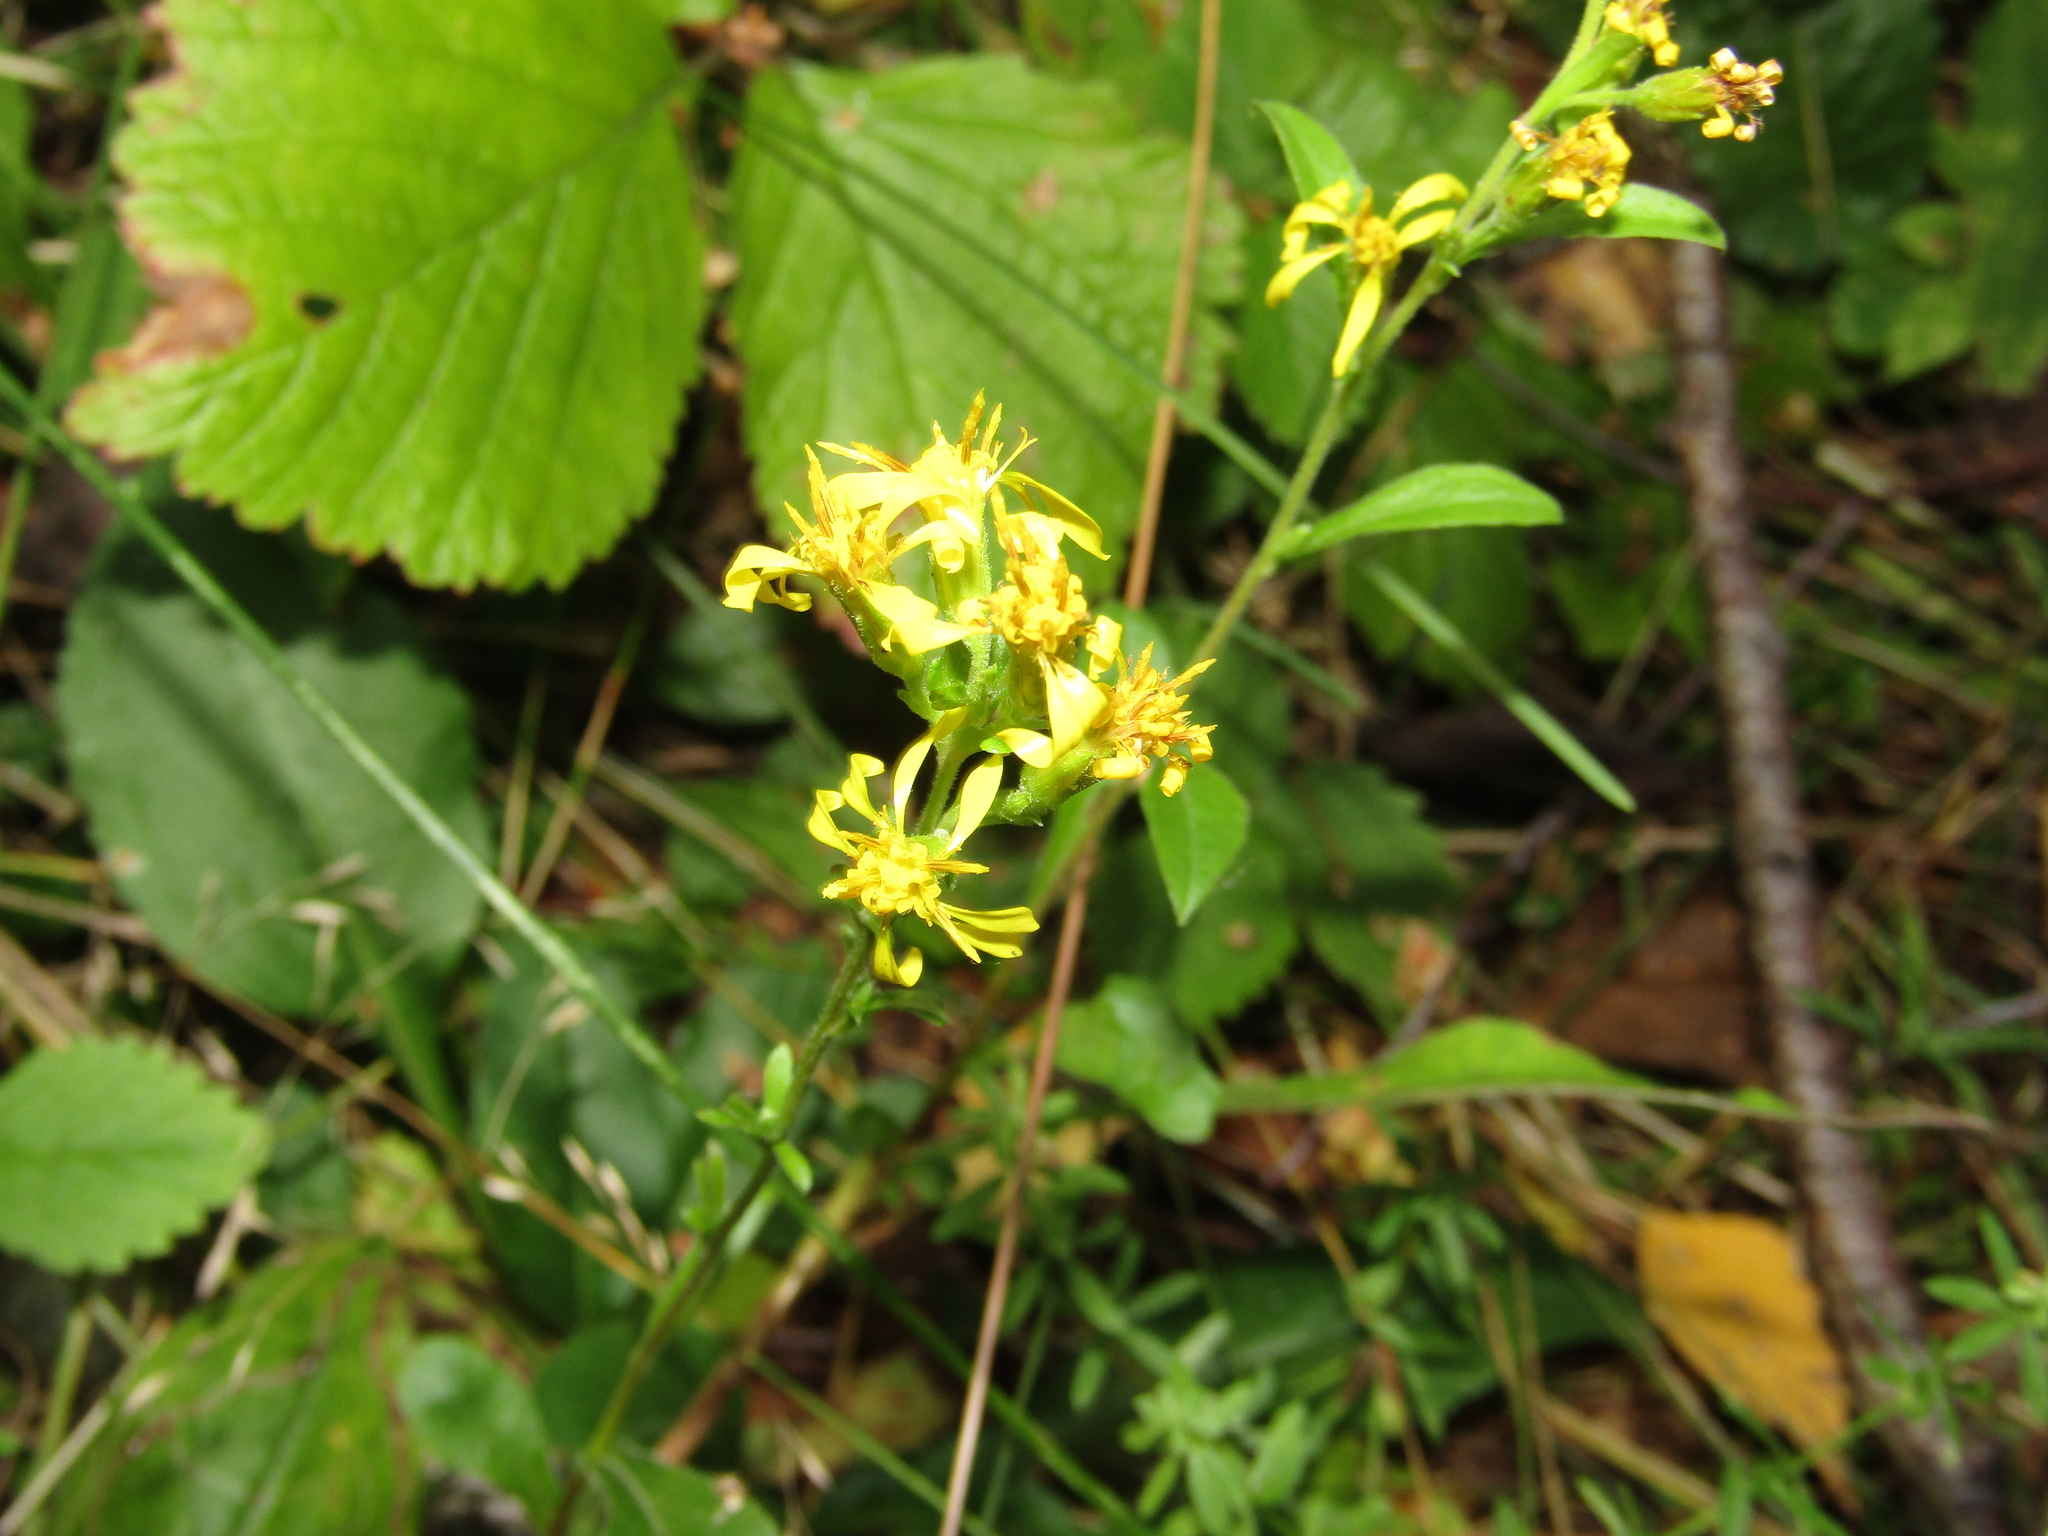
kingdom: Plantae
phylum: Tracheophyta
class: Magnoliopsida
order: Asterales
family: Asteraceae
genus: Solidago
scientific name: Solidago virgaurea
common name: Goldenrod
